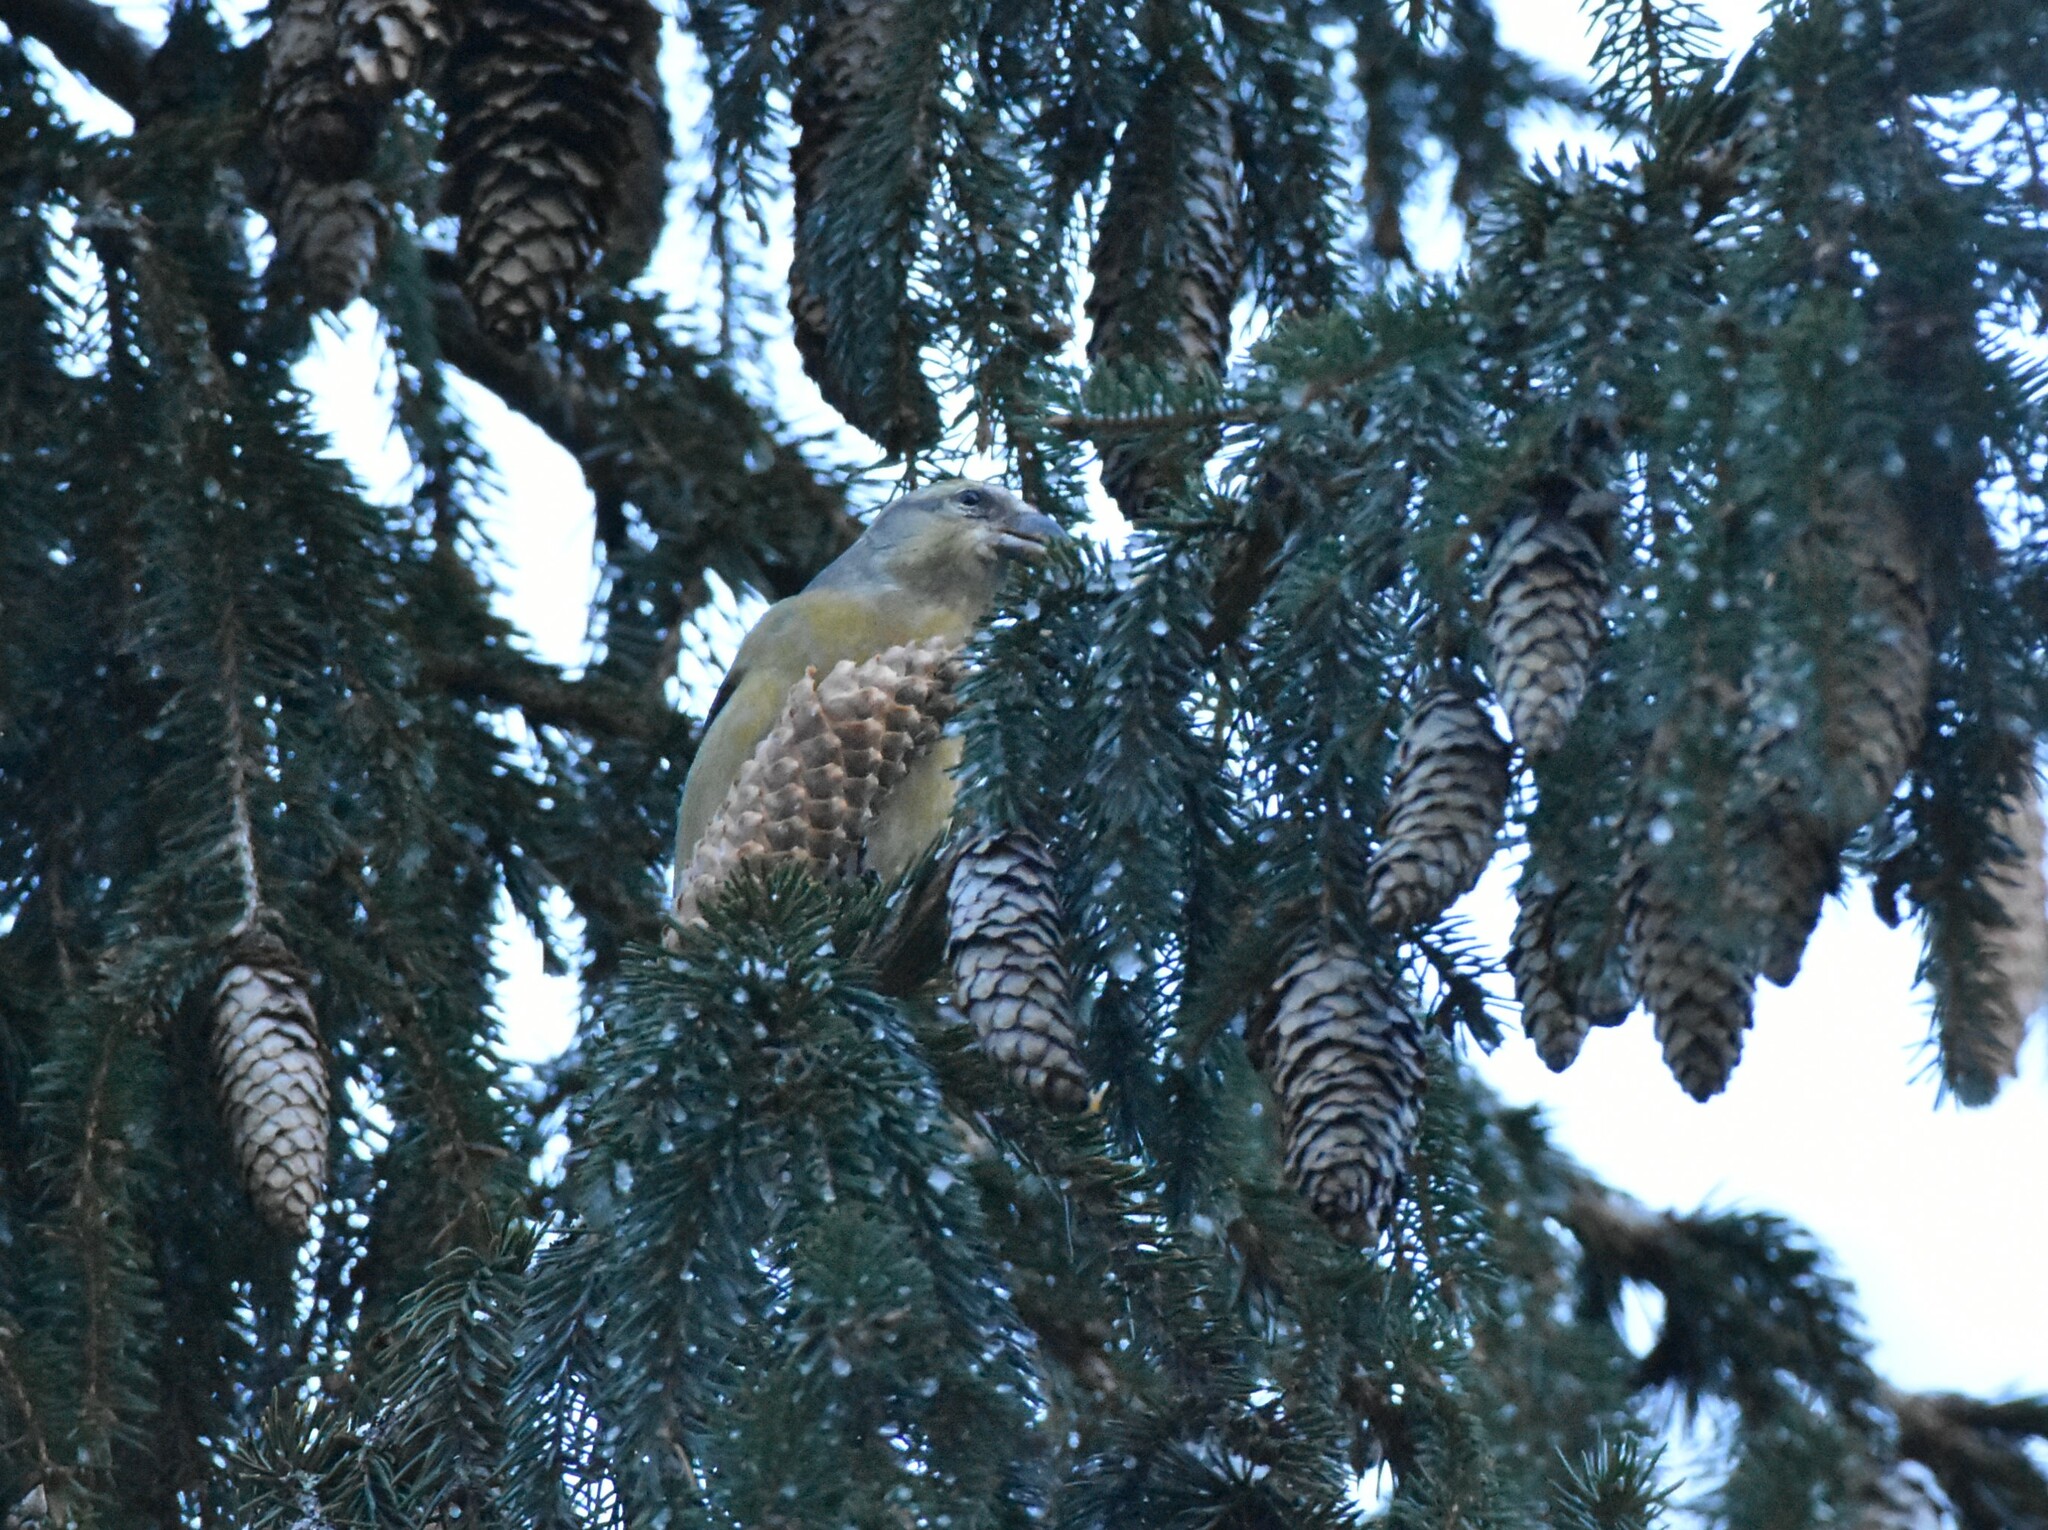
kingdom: Animalia
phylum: Chordata
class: Aves
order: Passeriformes
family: Fringillidae
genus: Loxia
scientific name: Loxia curvirostra
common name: Red crossbill
